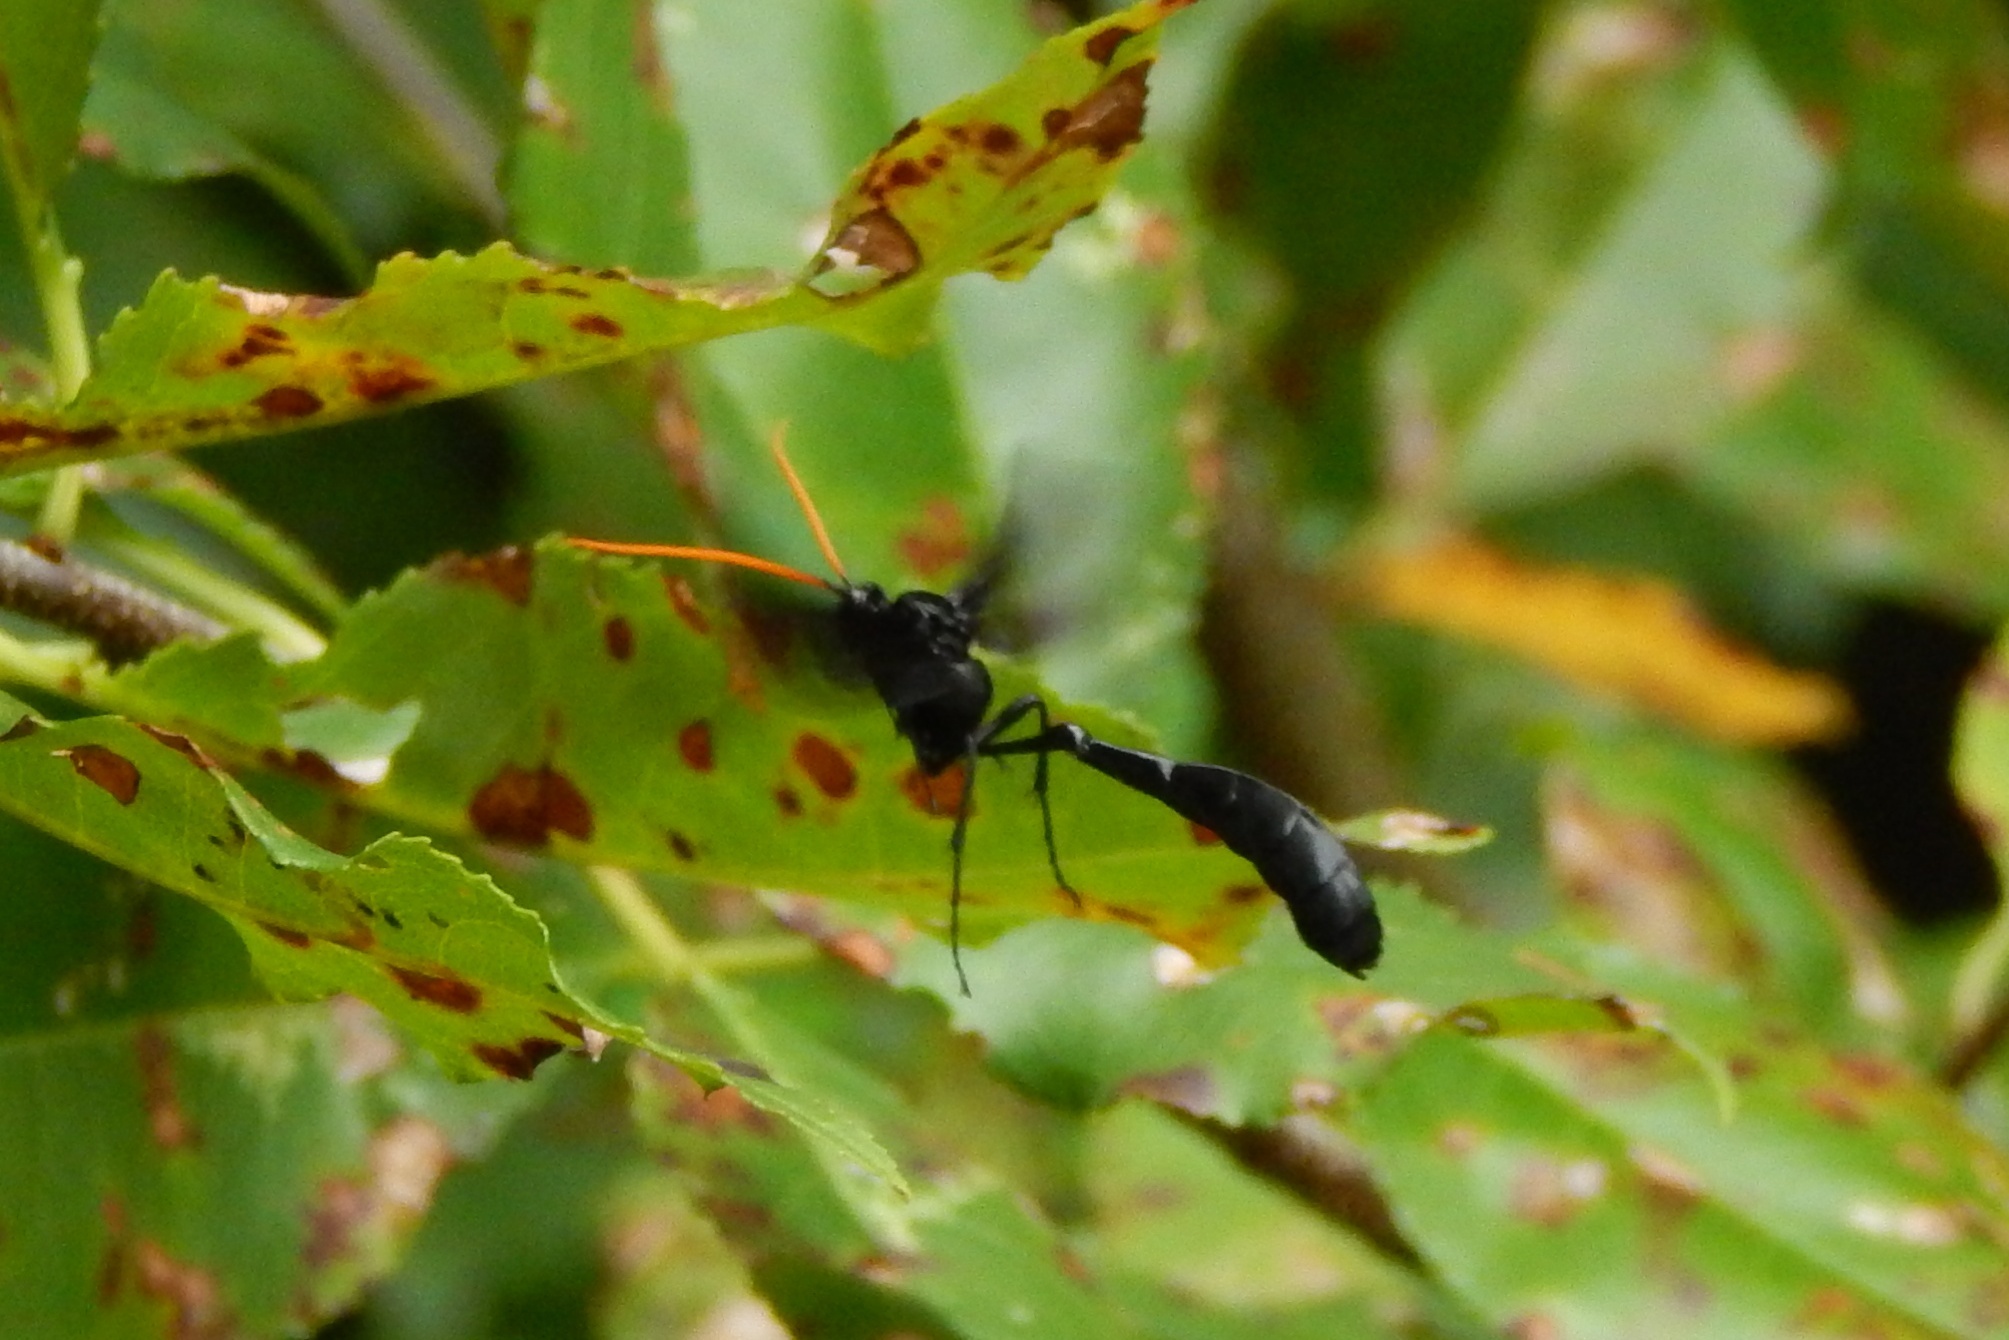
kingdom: Animalia
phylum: Arthropoda
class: Insecta
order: Hymenoptera
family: Ichneumonidae
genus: Thyreodon
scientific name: Thyreodon atricolor
